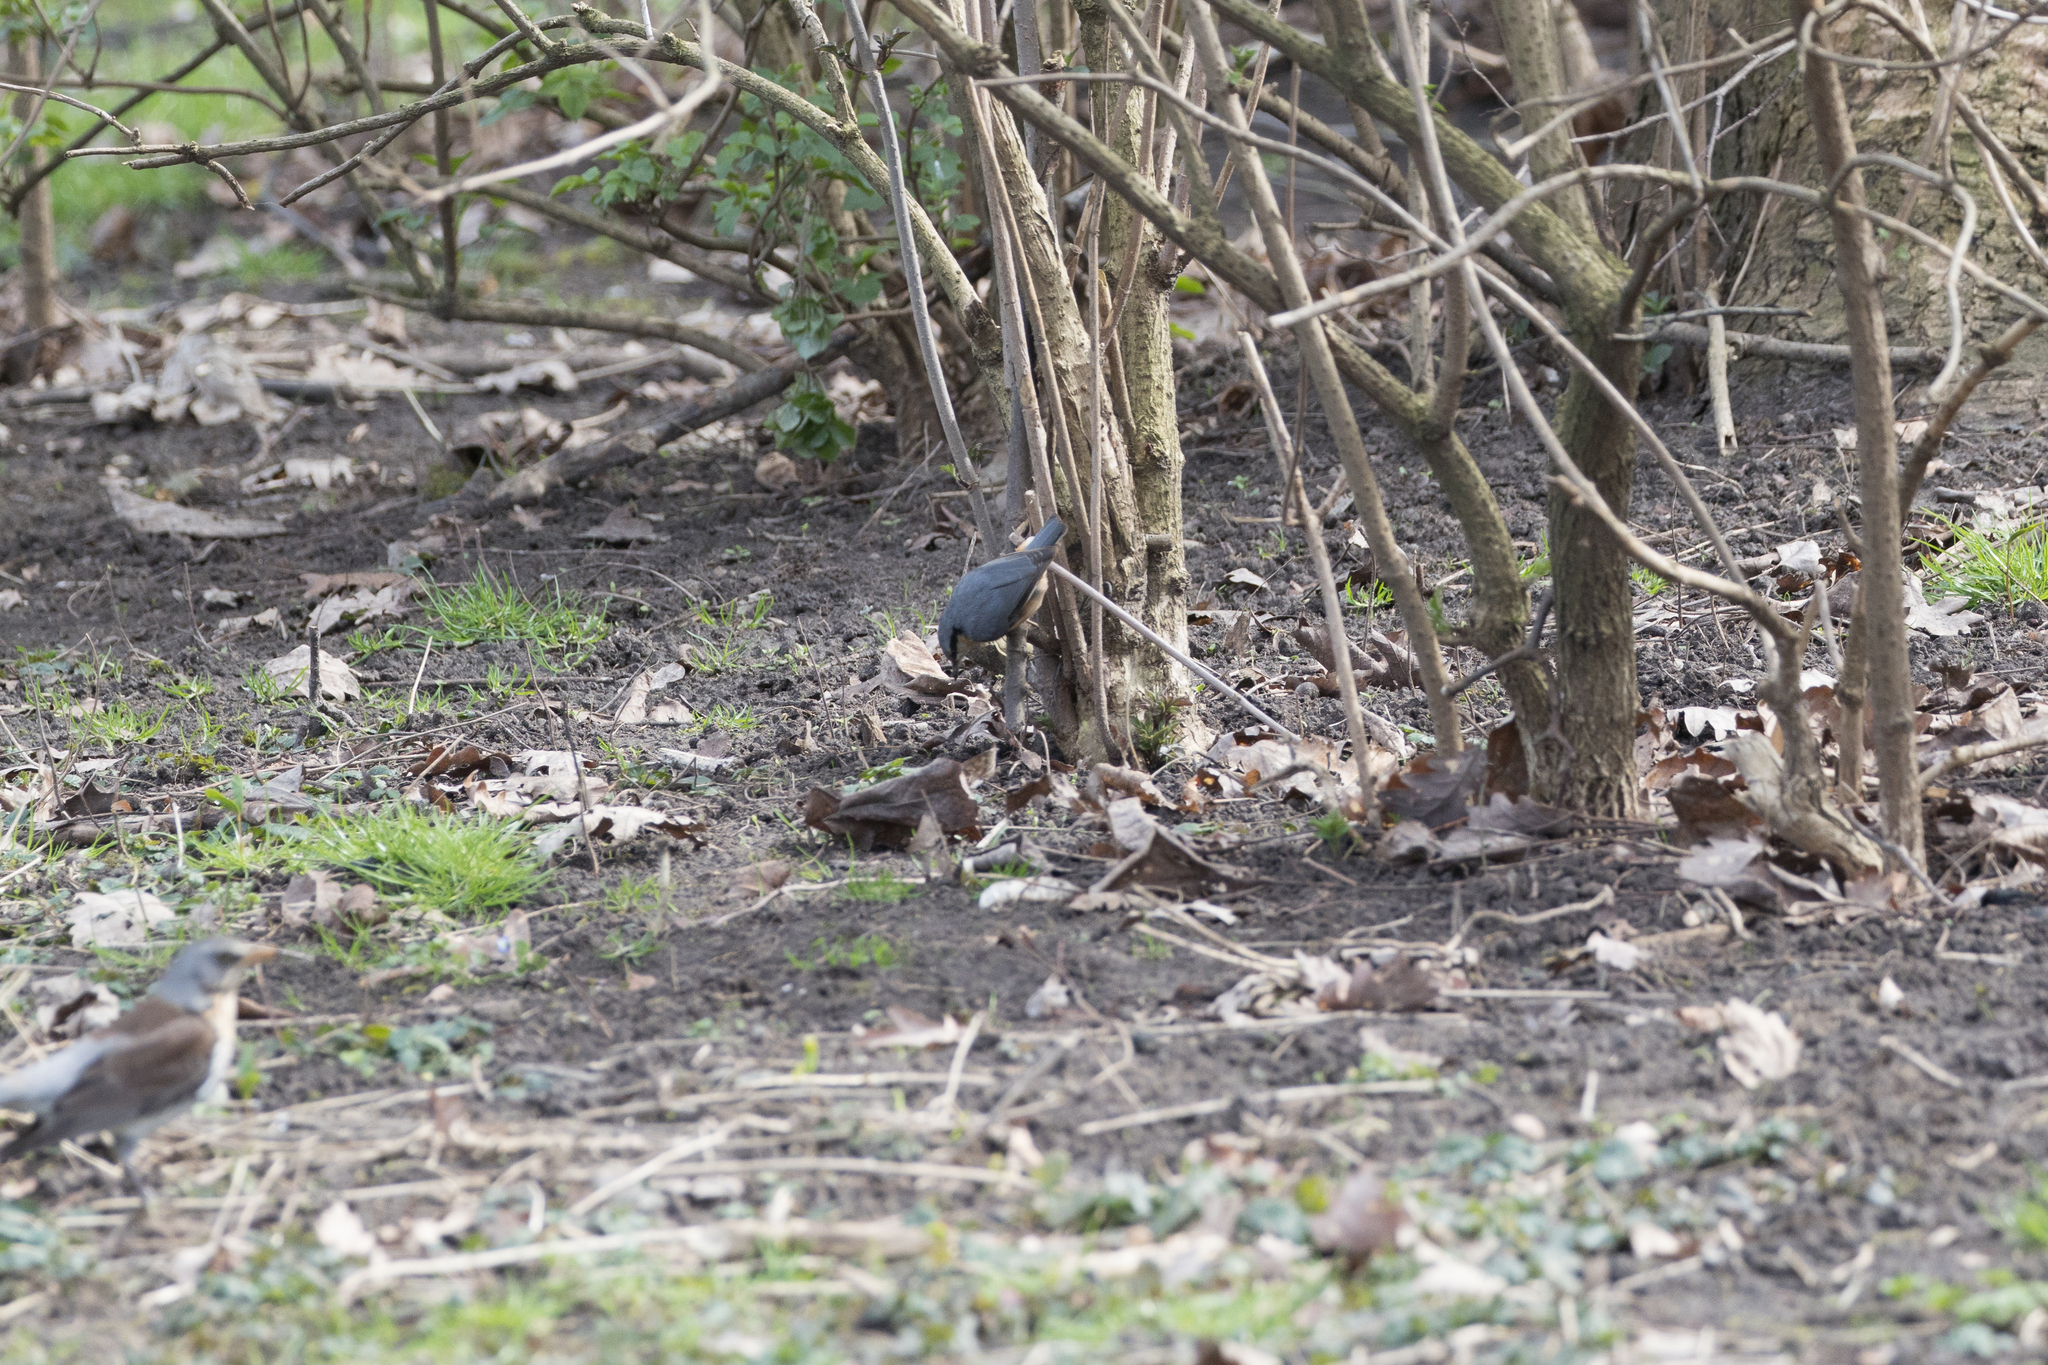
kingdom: Animalia
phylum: Chordata
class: Aves
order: Passeriformes
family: Sittidae
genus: Sitta
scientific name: Sitta europaea
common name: Eurasian nuthatch
